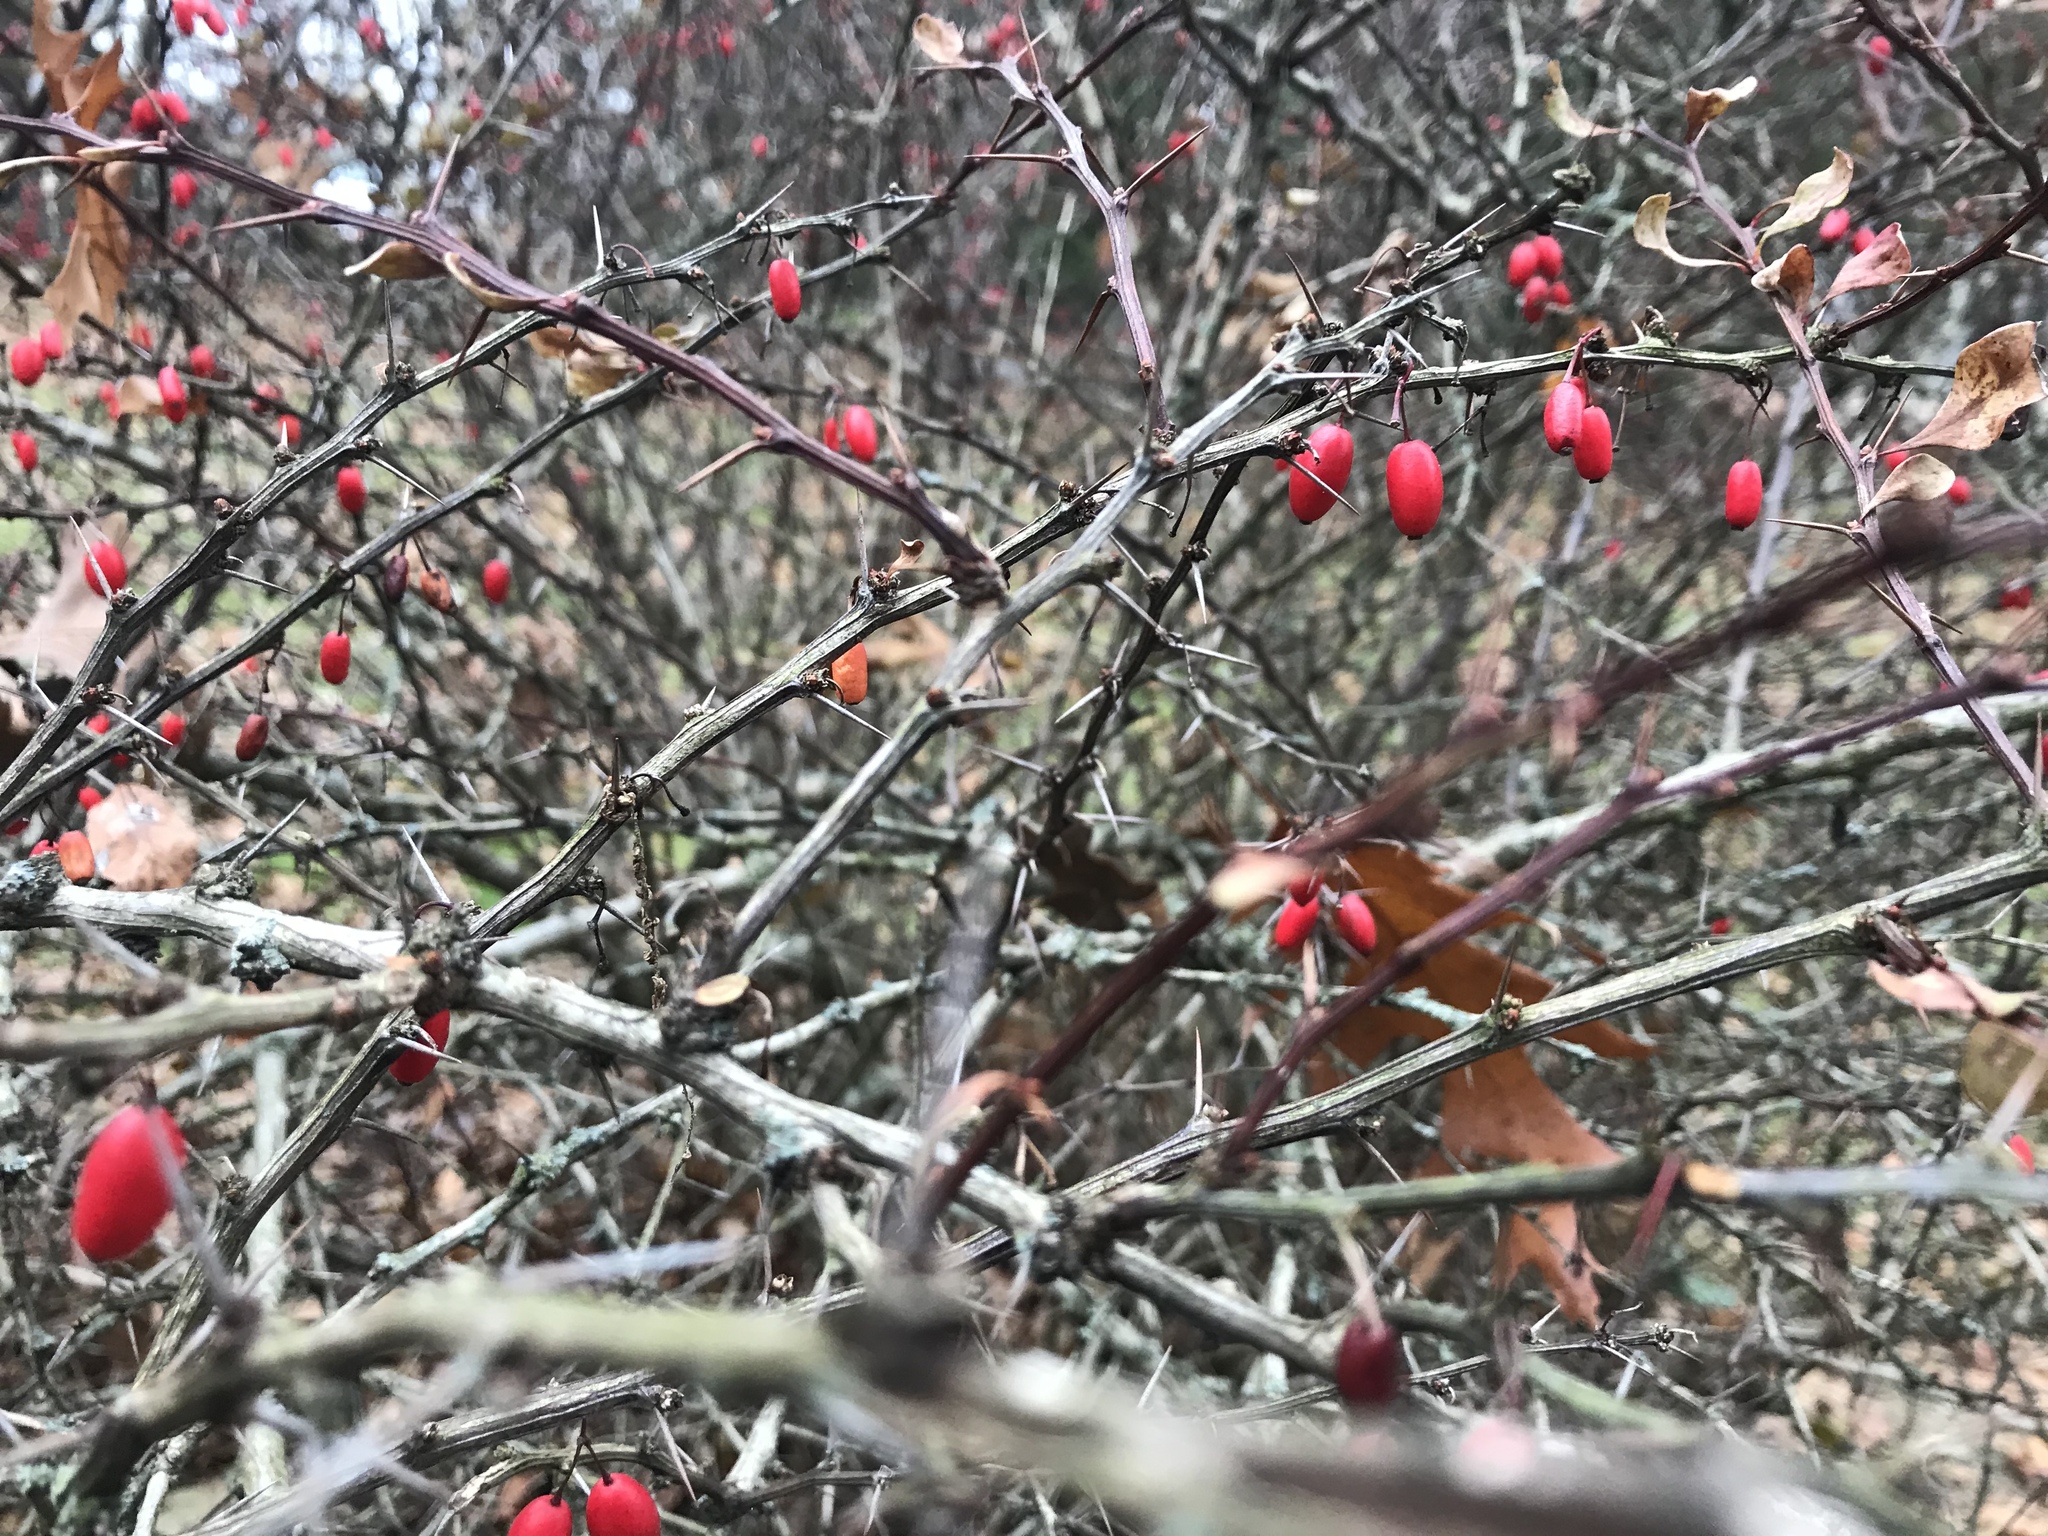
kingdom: Plantae
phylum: Tracheophyta
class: Magnoliopsida
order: Ranunculales
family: Berberidaceae
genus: Berberis
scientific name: Berberis thunbergii
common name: Japanese barberry
